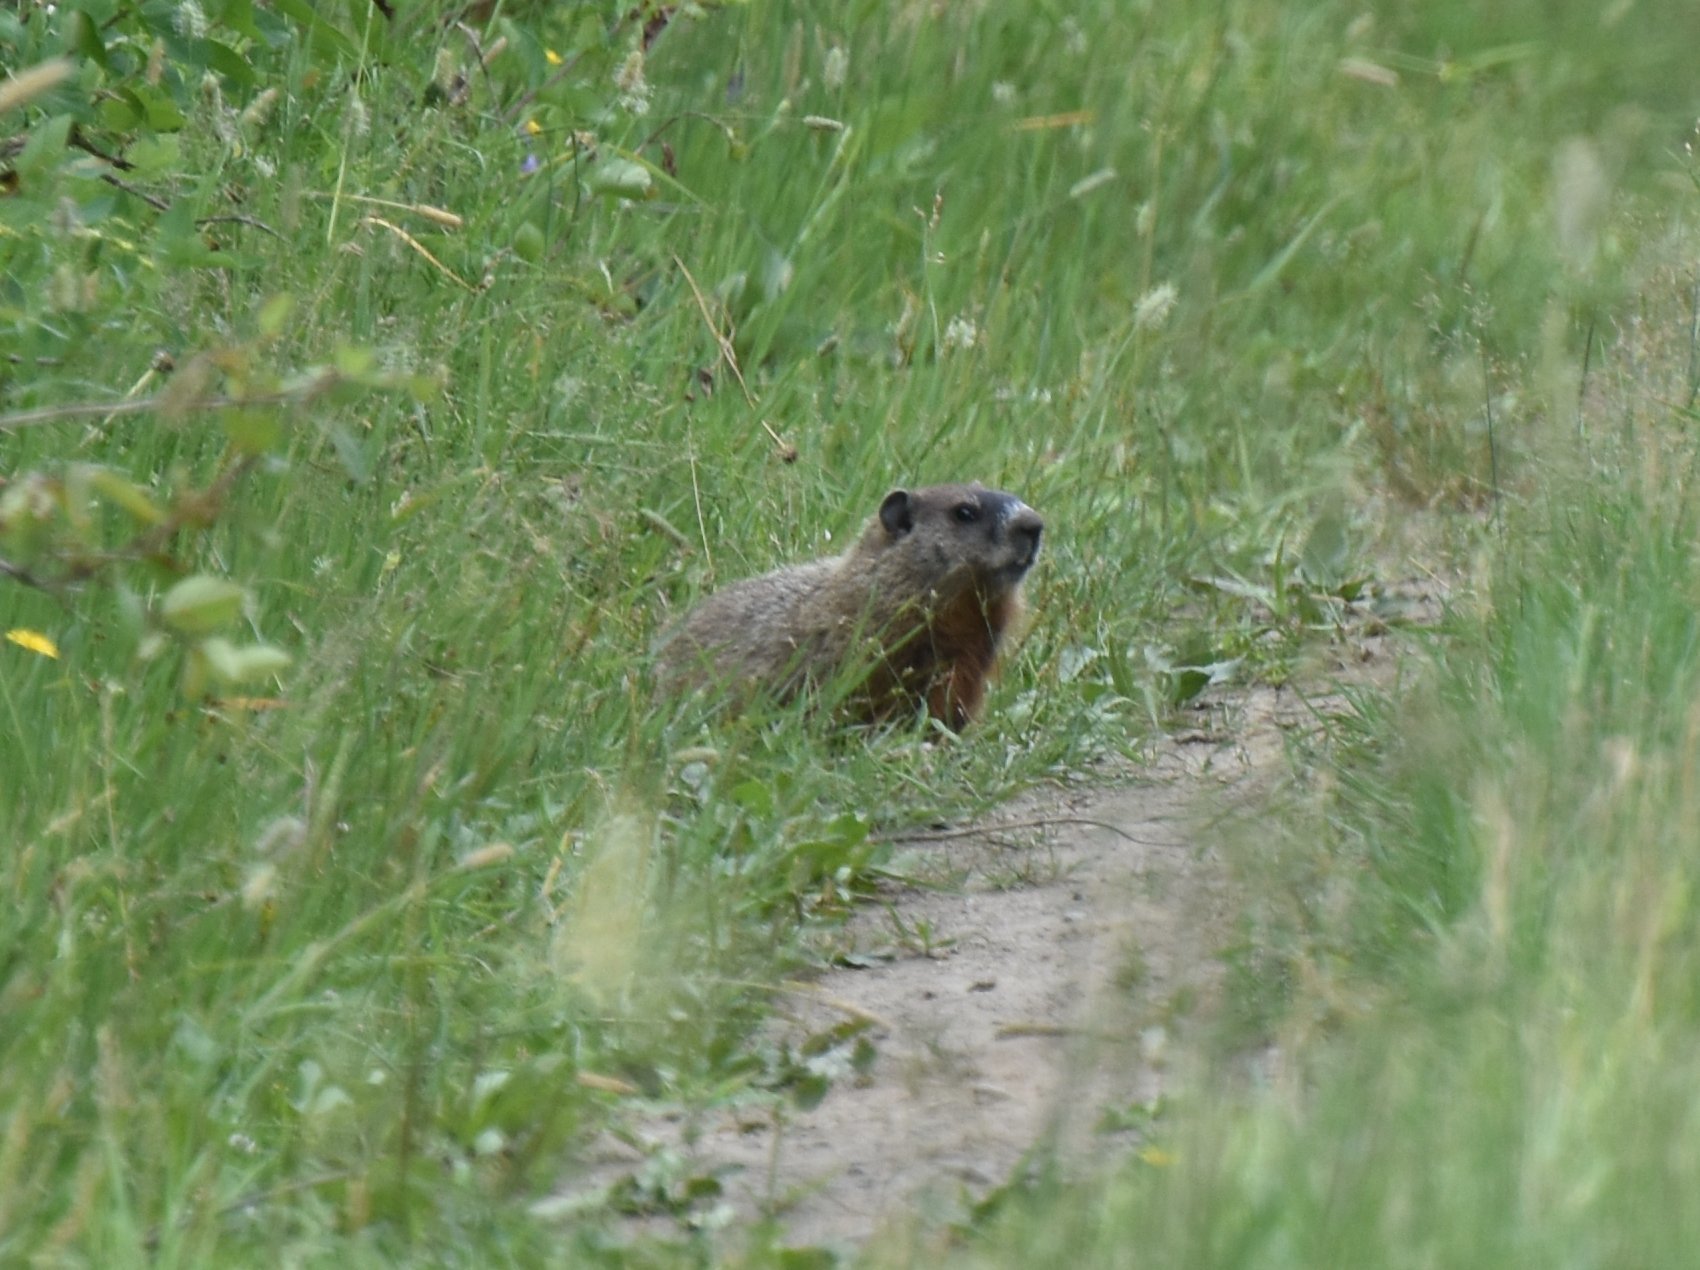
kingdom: Animalia
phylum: Chordata
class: Mammalia
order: Rodentia
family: Sciuridae
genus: Marmota
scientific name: Marmota monax
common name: Groundhog
